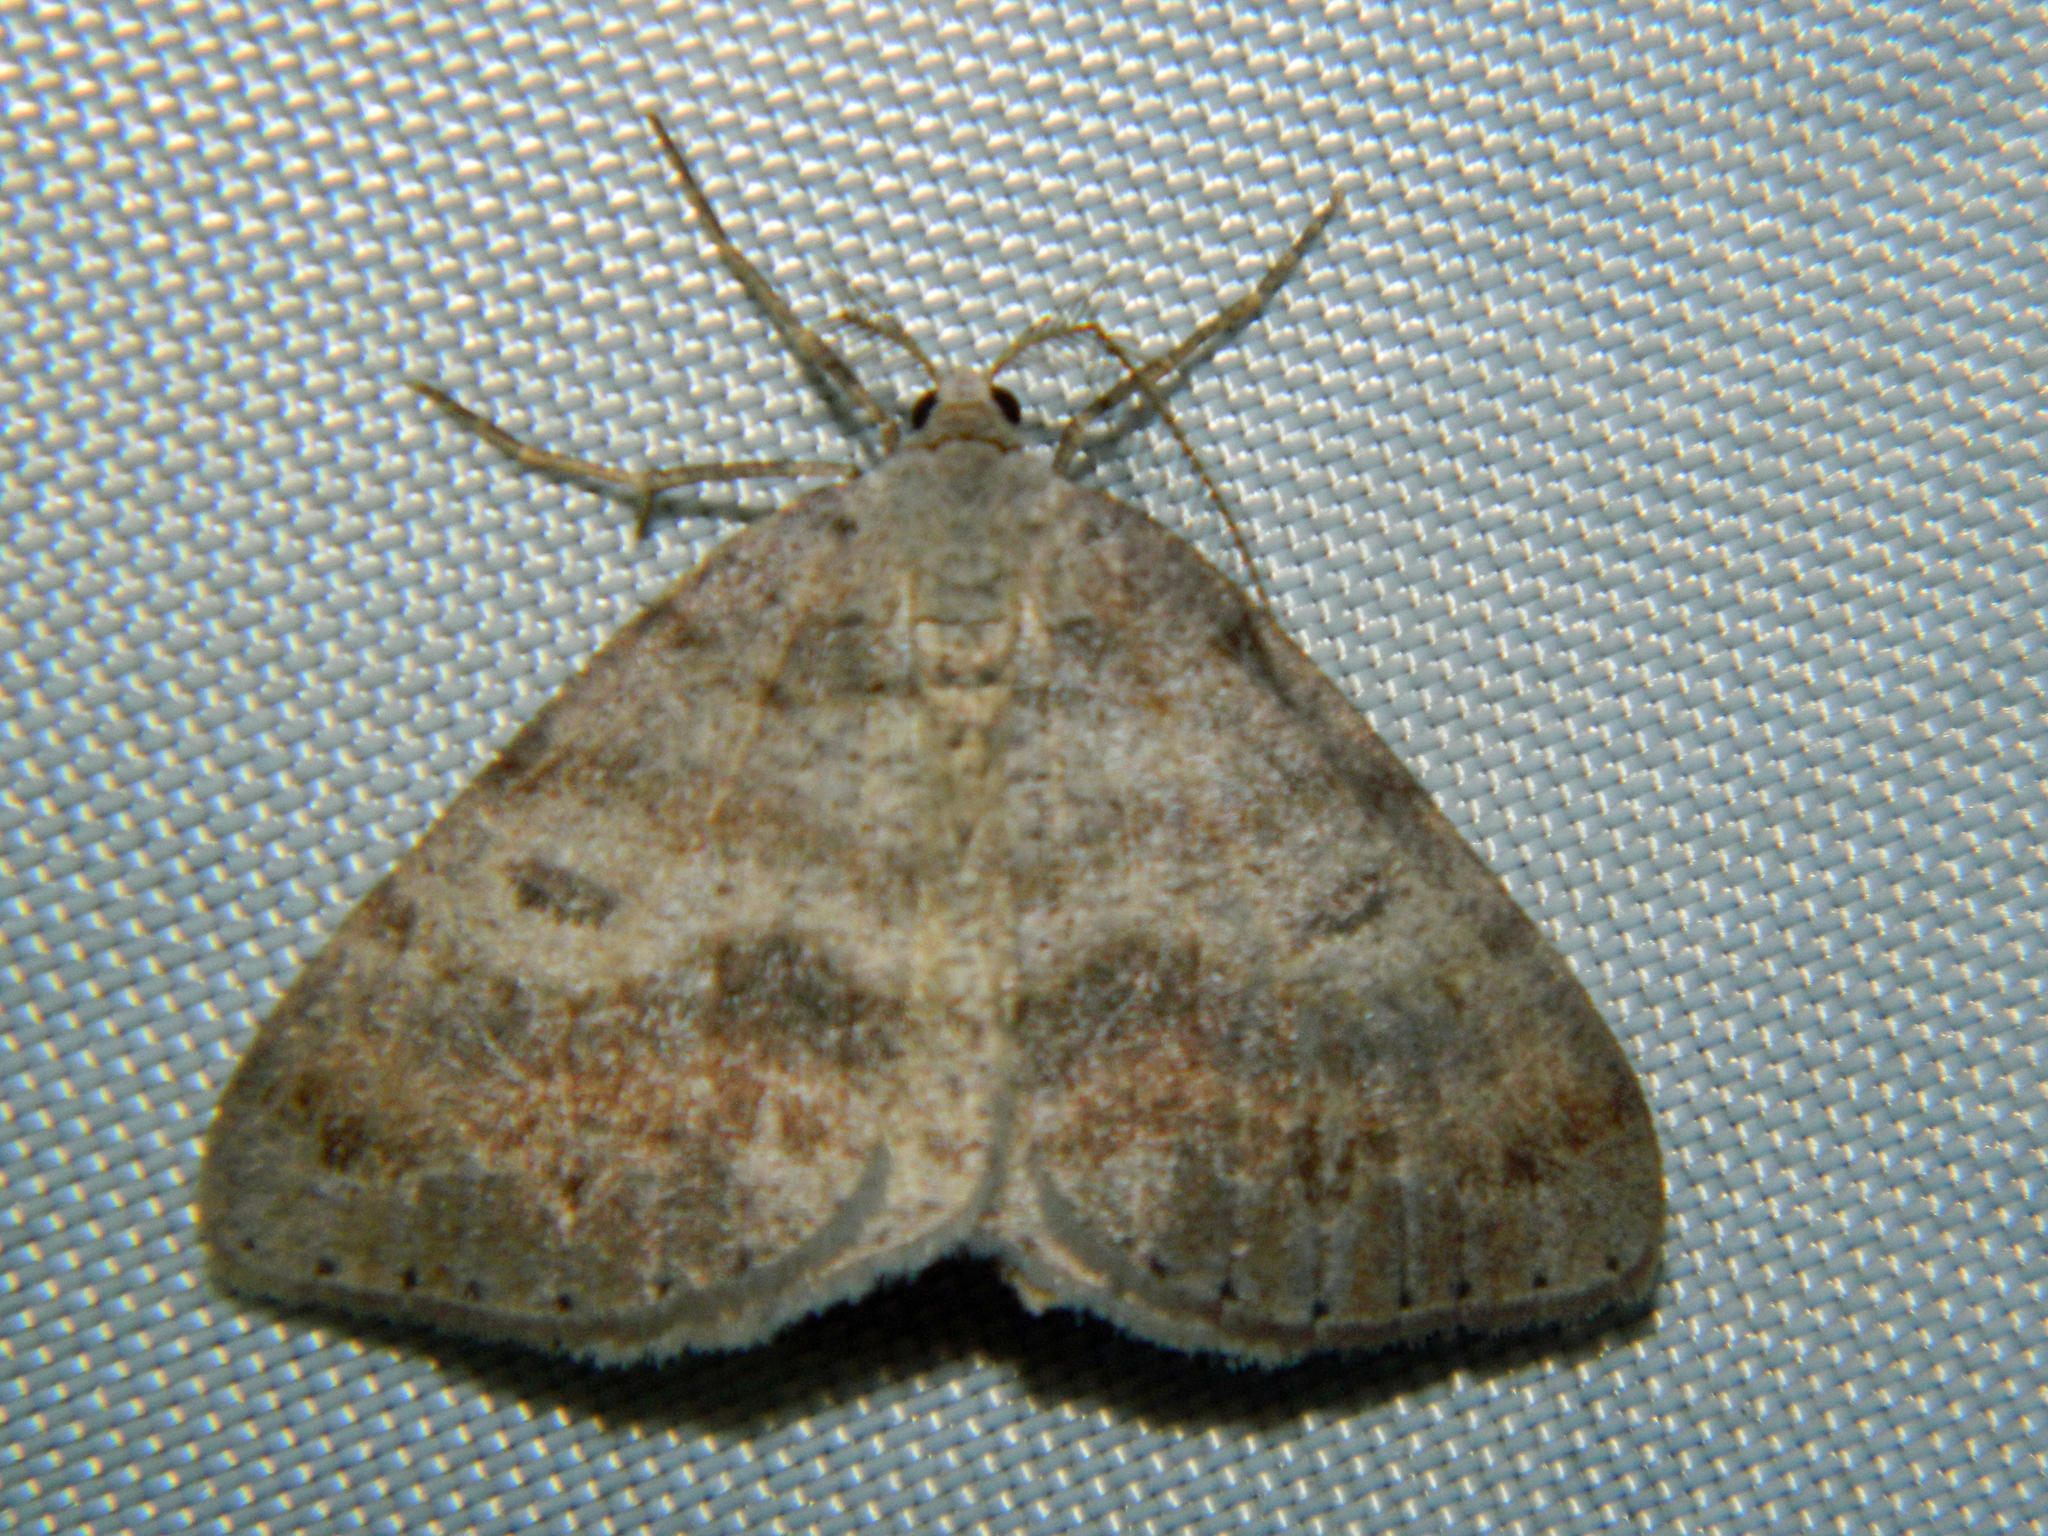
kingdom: Animalia
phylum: Arthropoda
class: Insecta
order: Lepidoptera
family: Geometridae
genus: Macaria
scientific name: Macaria loricaria
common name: False bruce spanworm
